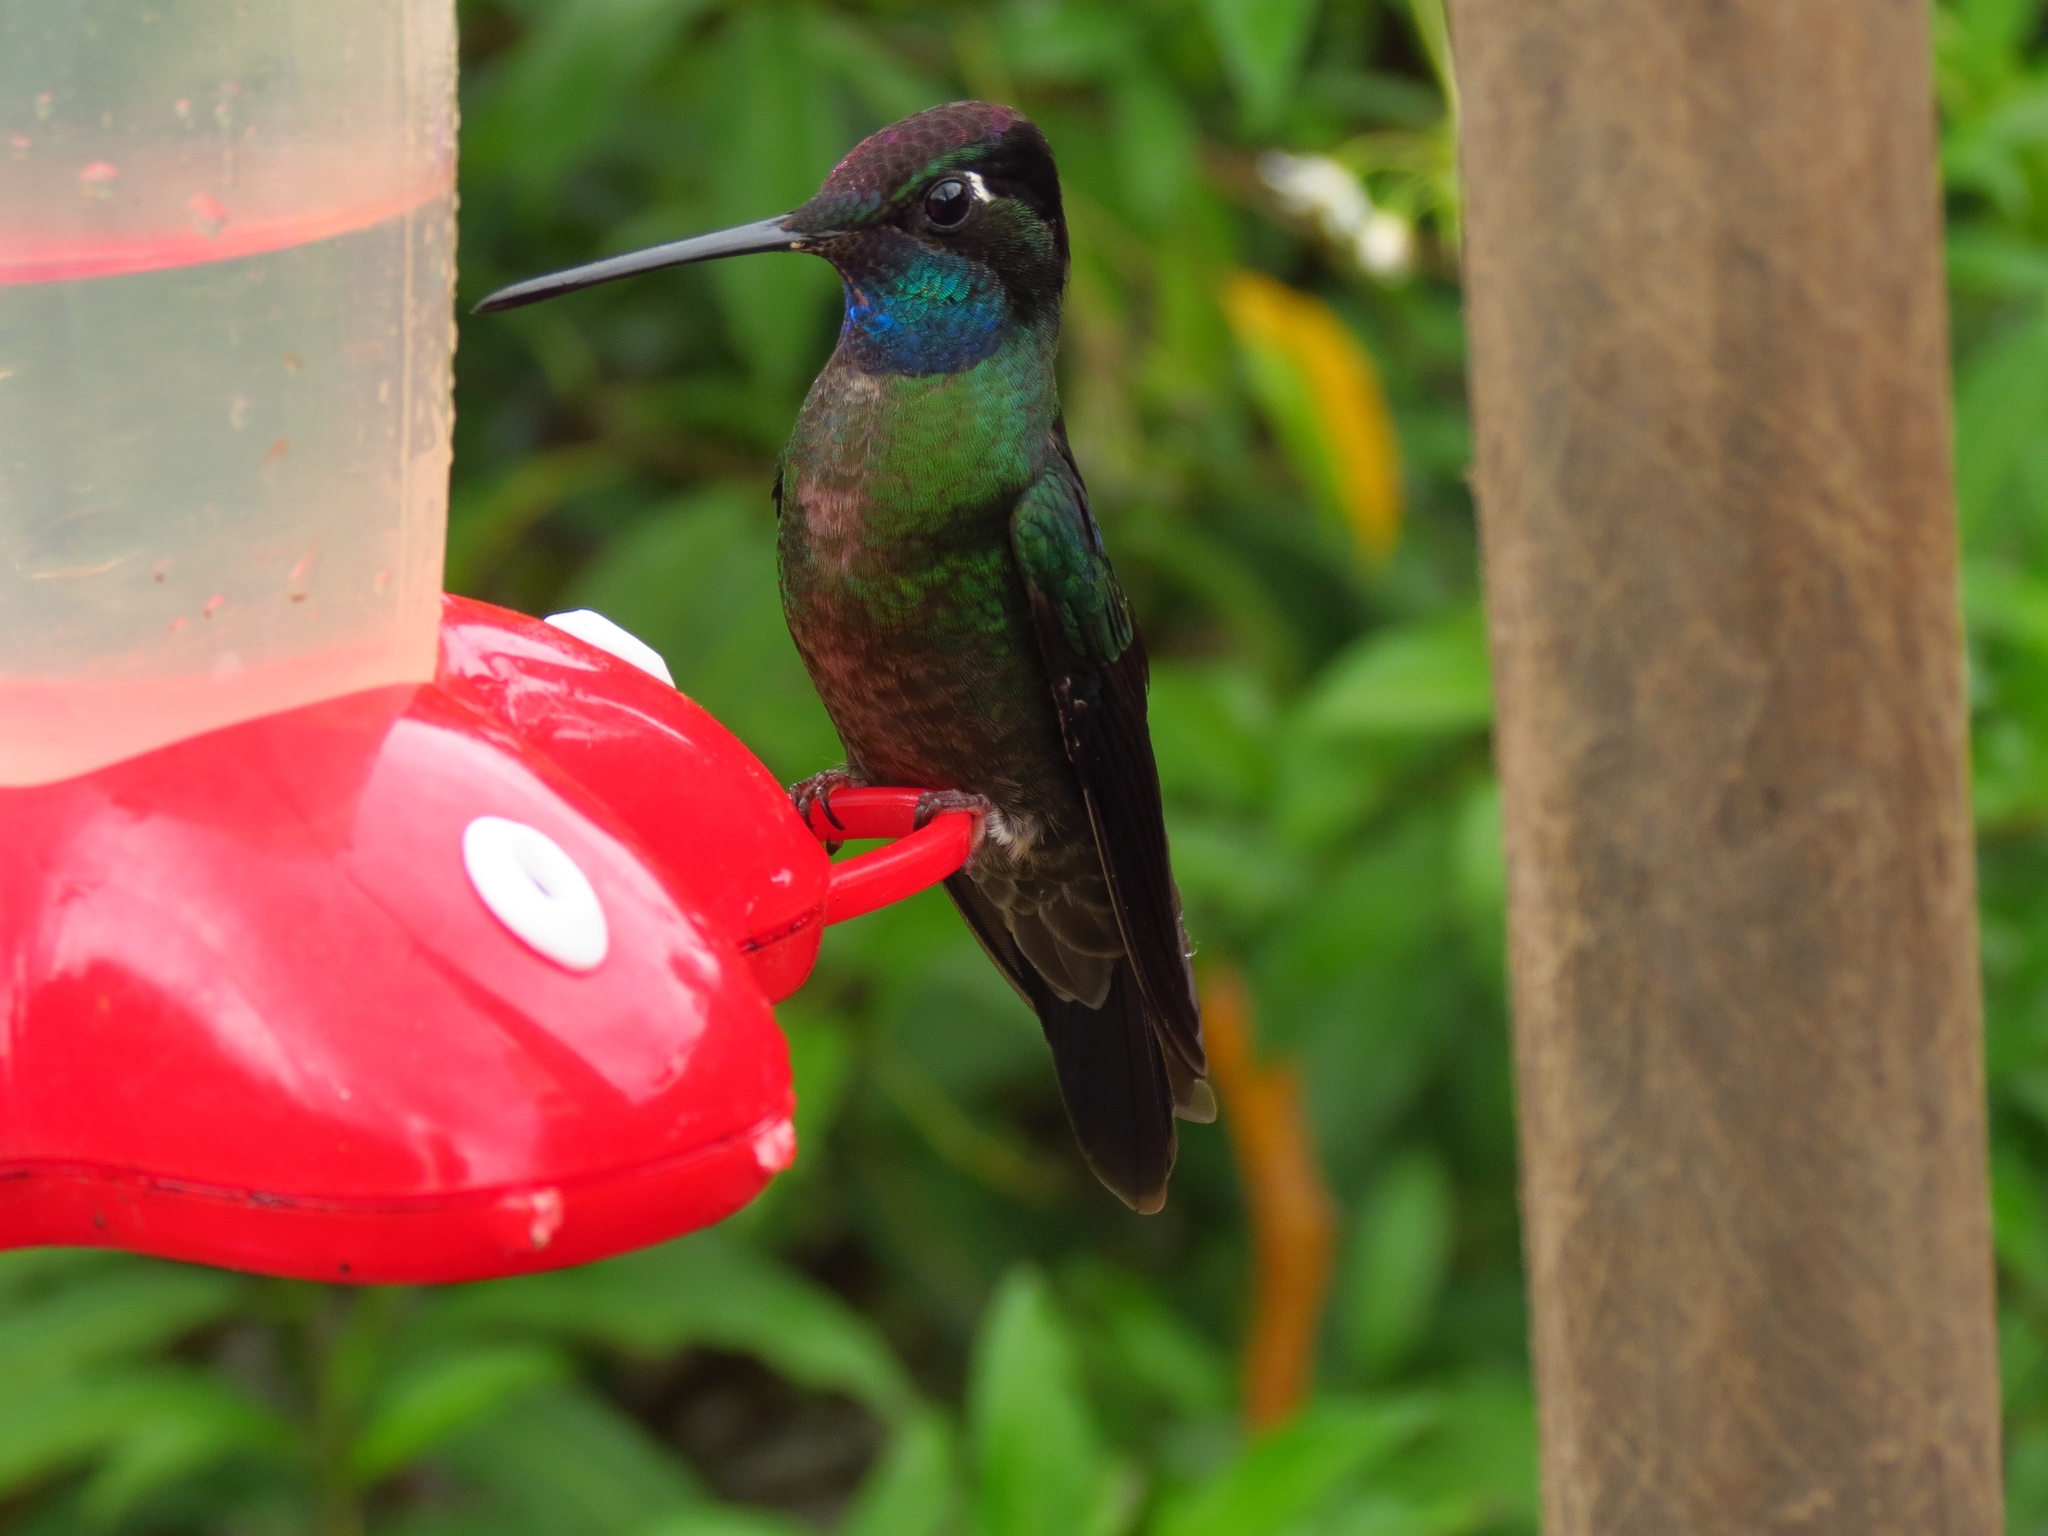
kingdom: Animalia
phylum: Chordata
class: Aves
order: Apodiformes
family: Trochilidae
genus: Eugenes
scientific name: Eugenes spectabilis
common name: Talamanca hummingbird
